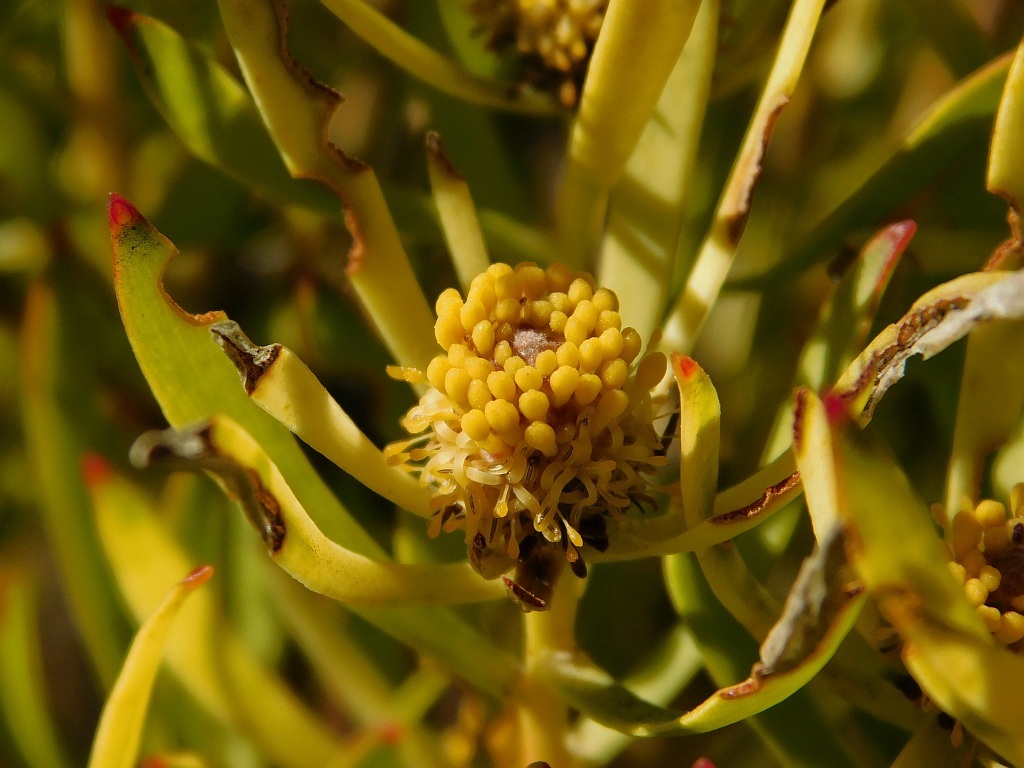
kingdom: Plantae
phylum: Tracheophyta
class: Magnoliopsida
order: Proteales
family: Proteaceae
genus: Leucadendron
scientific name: Leucadendron salignum
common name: Common sunshine conebush
